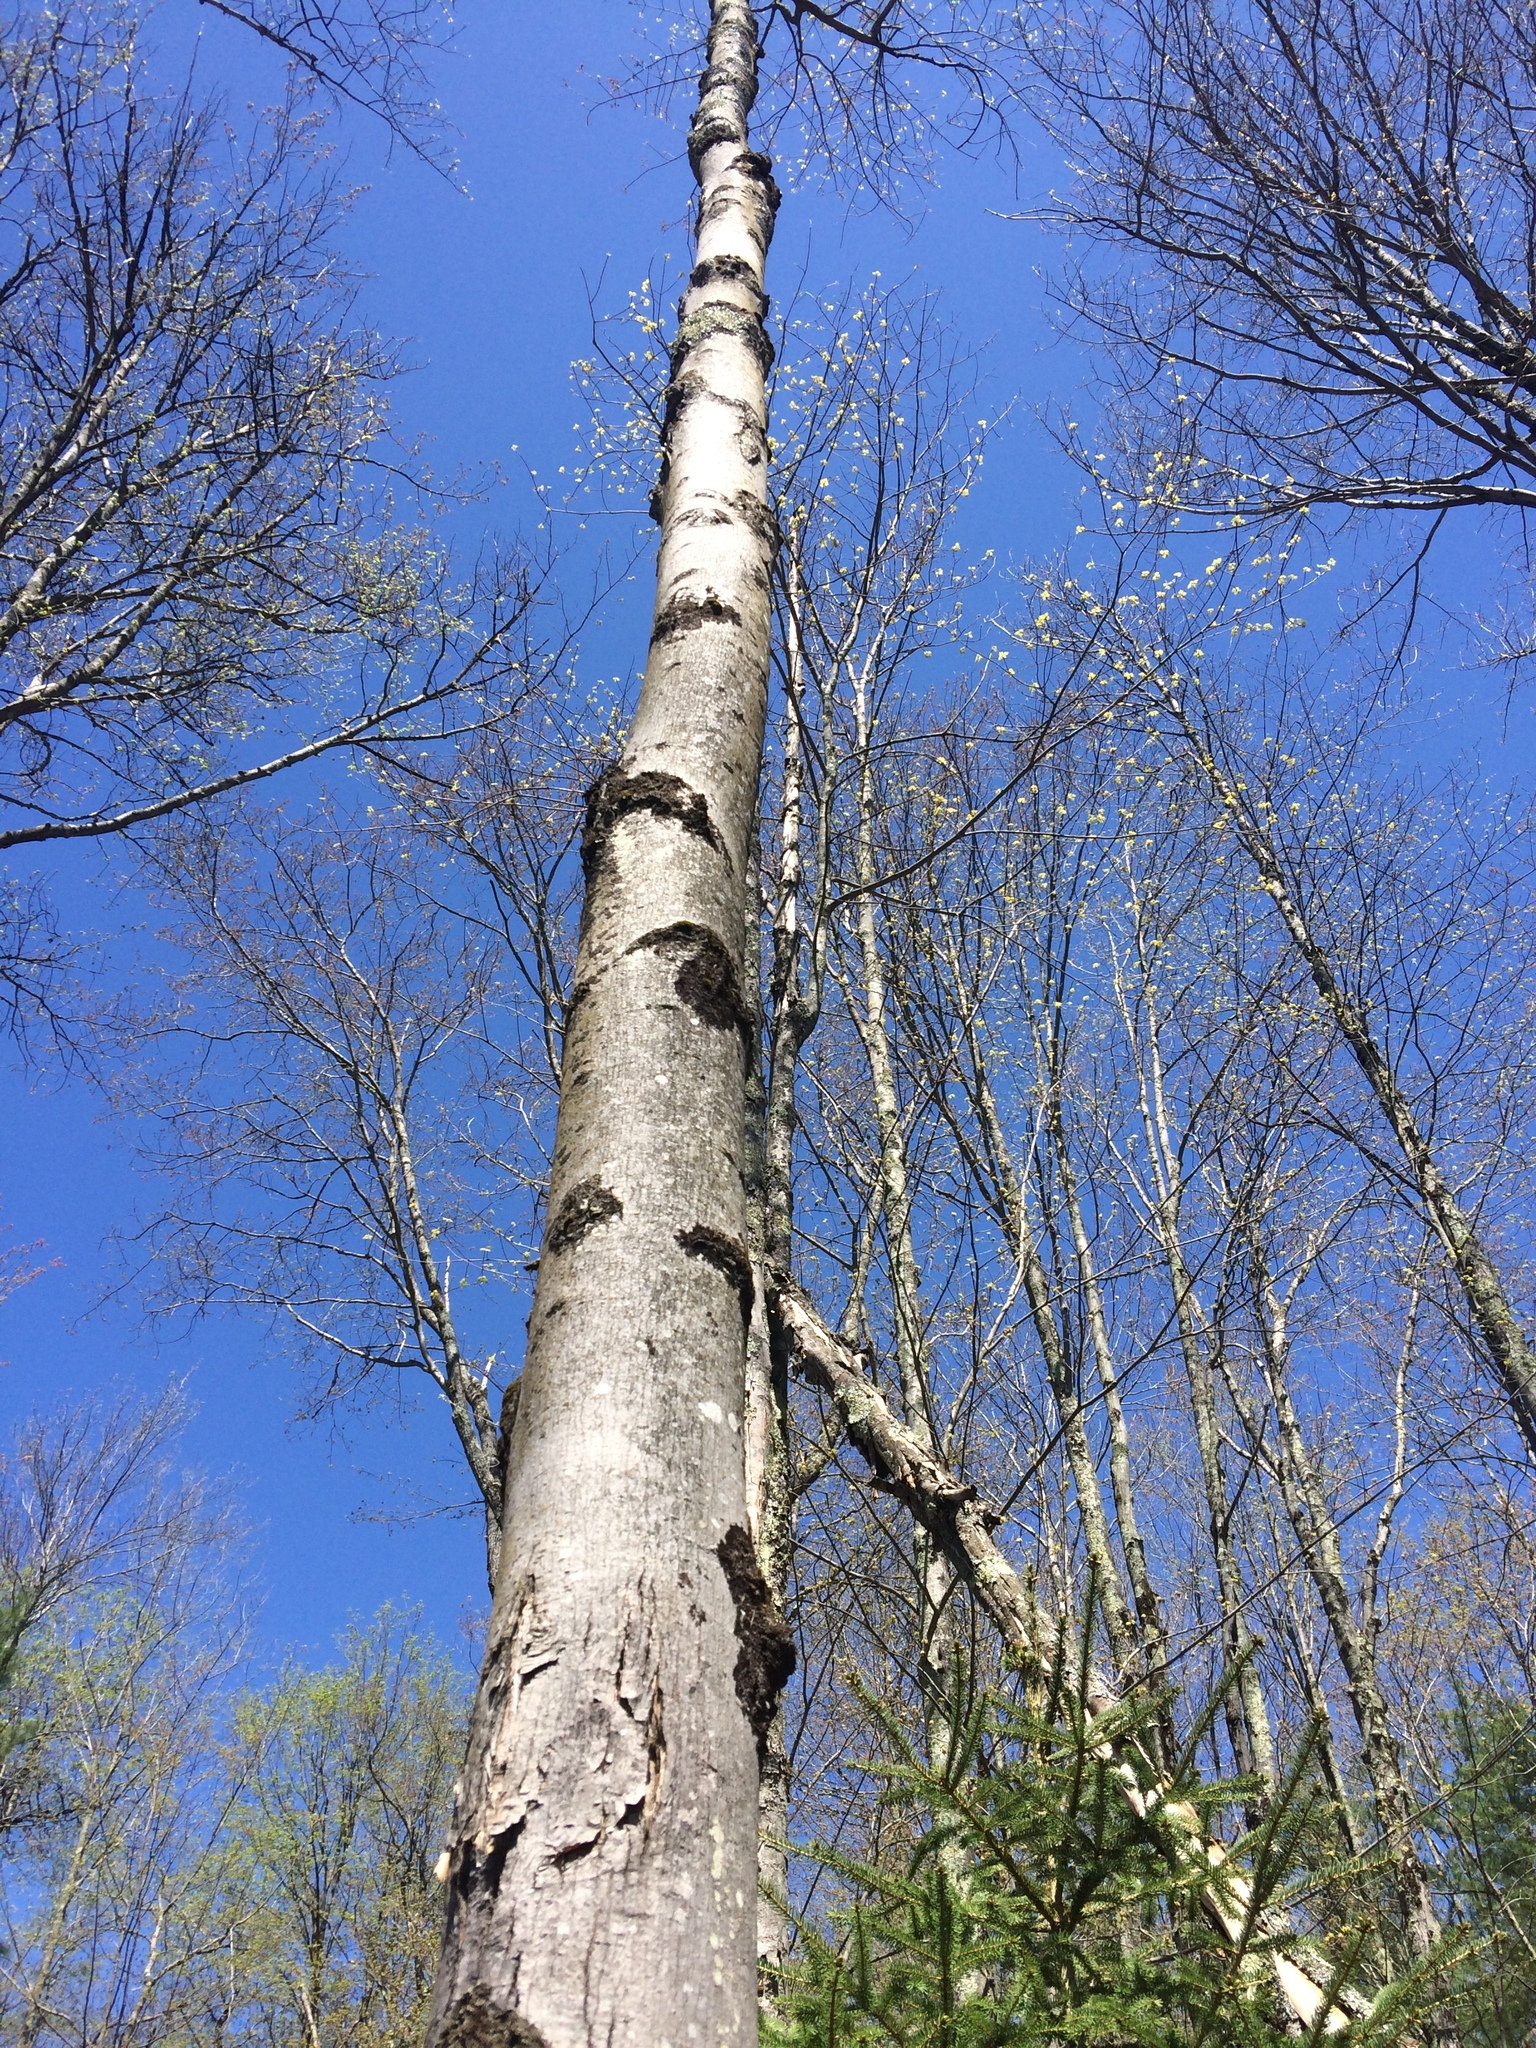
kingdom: Plantae
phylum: Tracheophyta
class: Magnoliopsida
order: Sapindales
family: Sapindaceae
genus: Acer
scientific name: Acer rubrum
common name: Red maple
